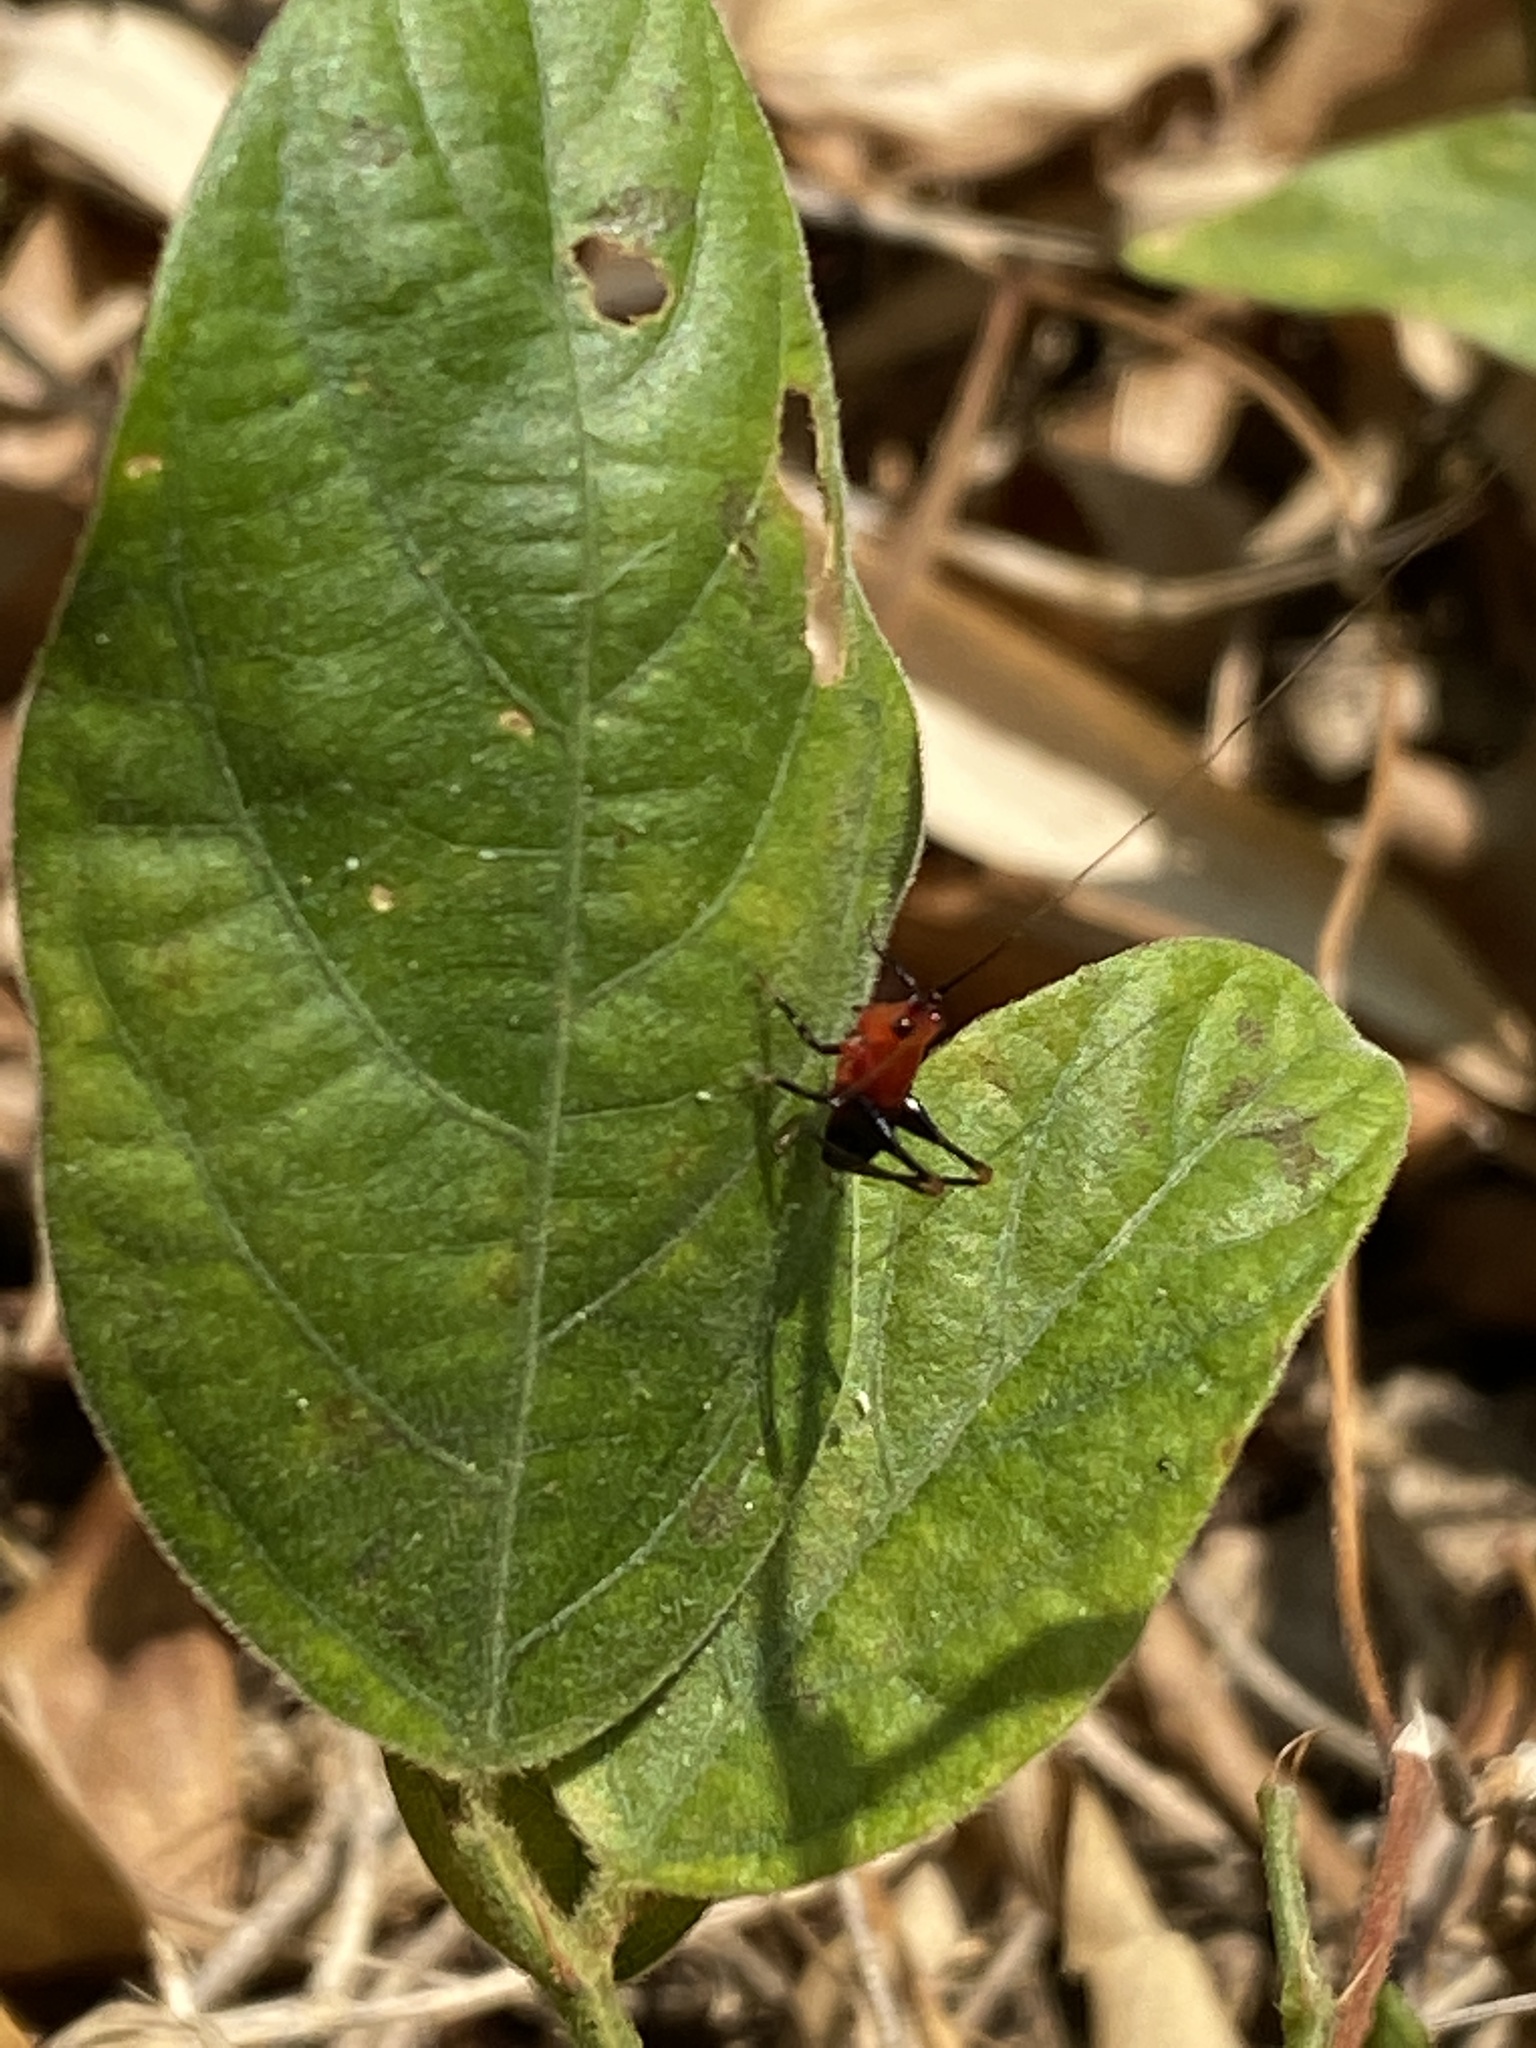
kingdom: Animalia
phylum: Arthropoda
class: Insecta
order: Orthoptera
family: Tettigoniidae
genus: Conocephalus
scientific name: Conocephalus melaenus
